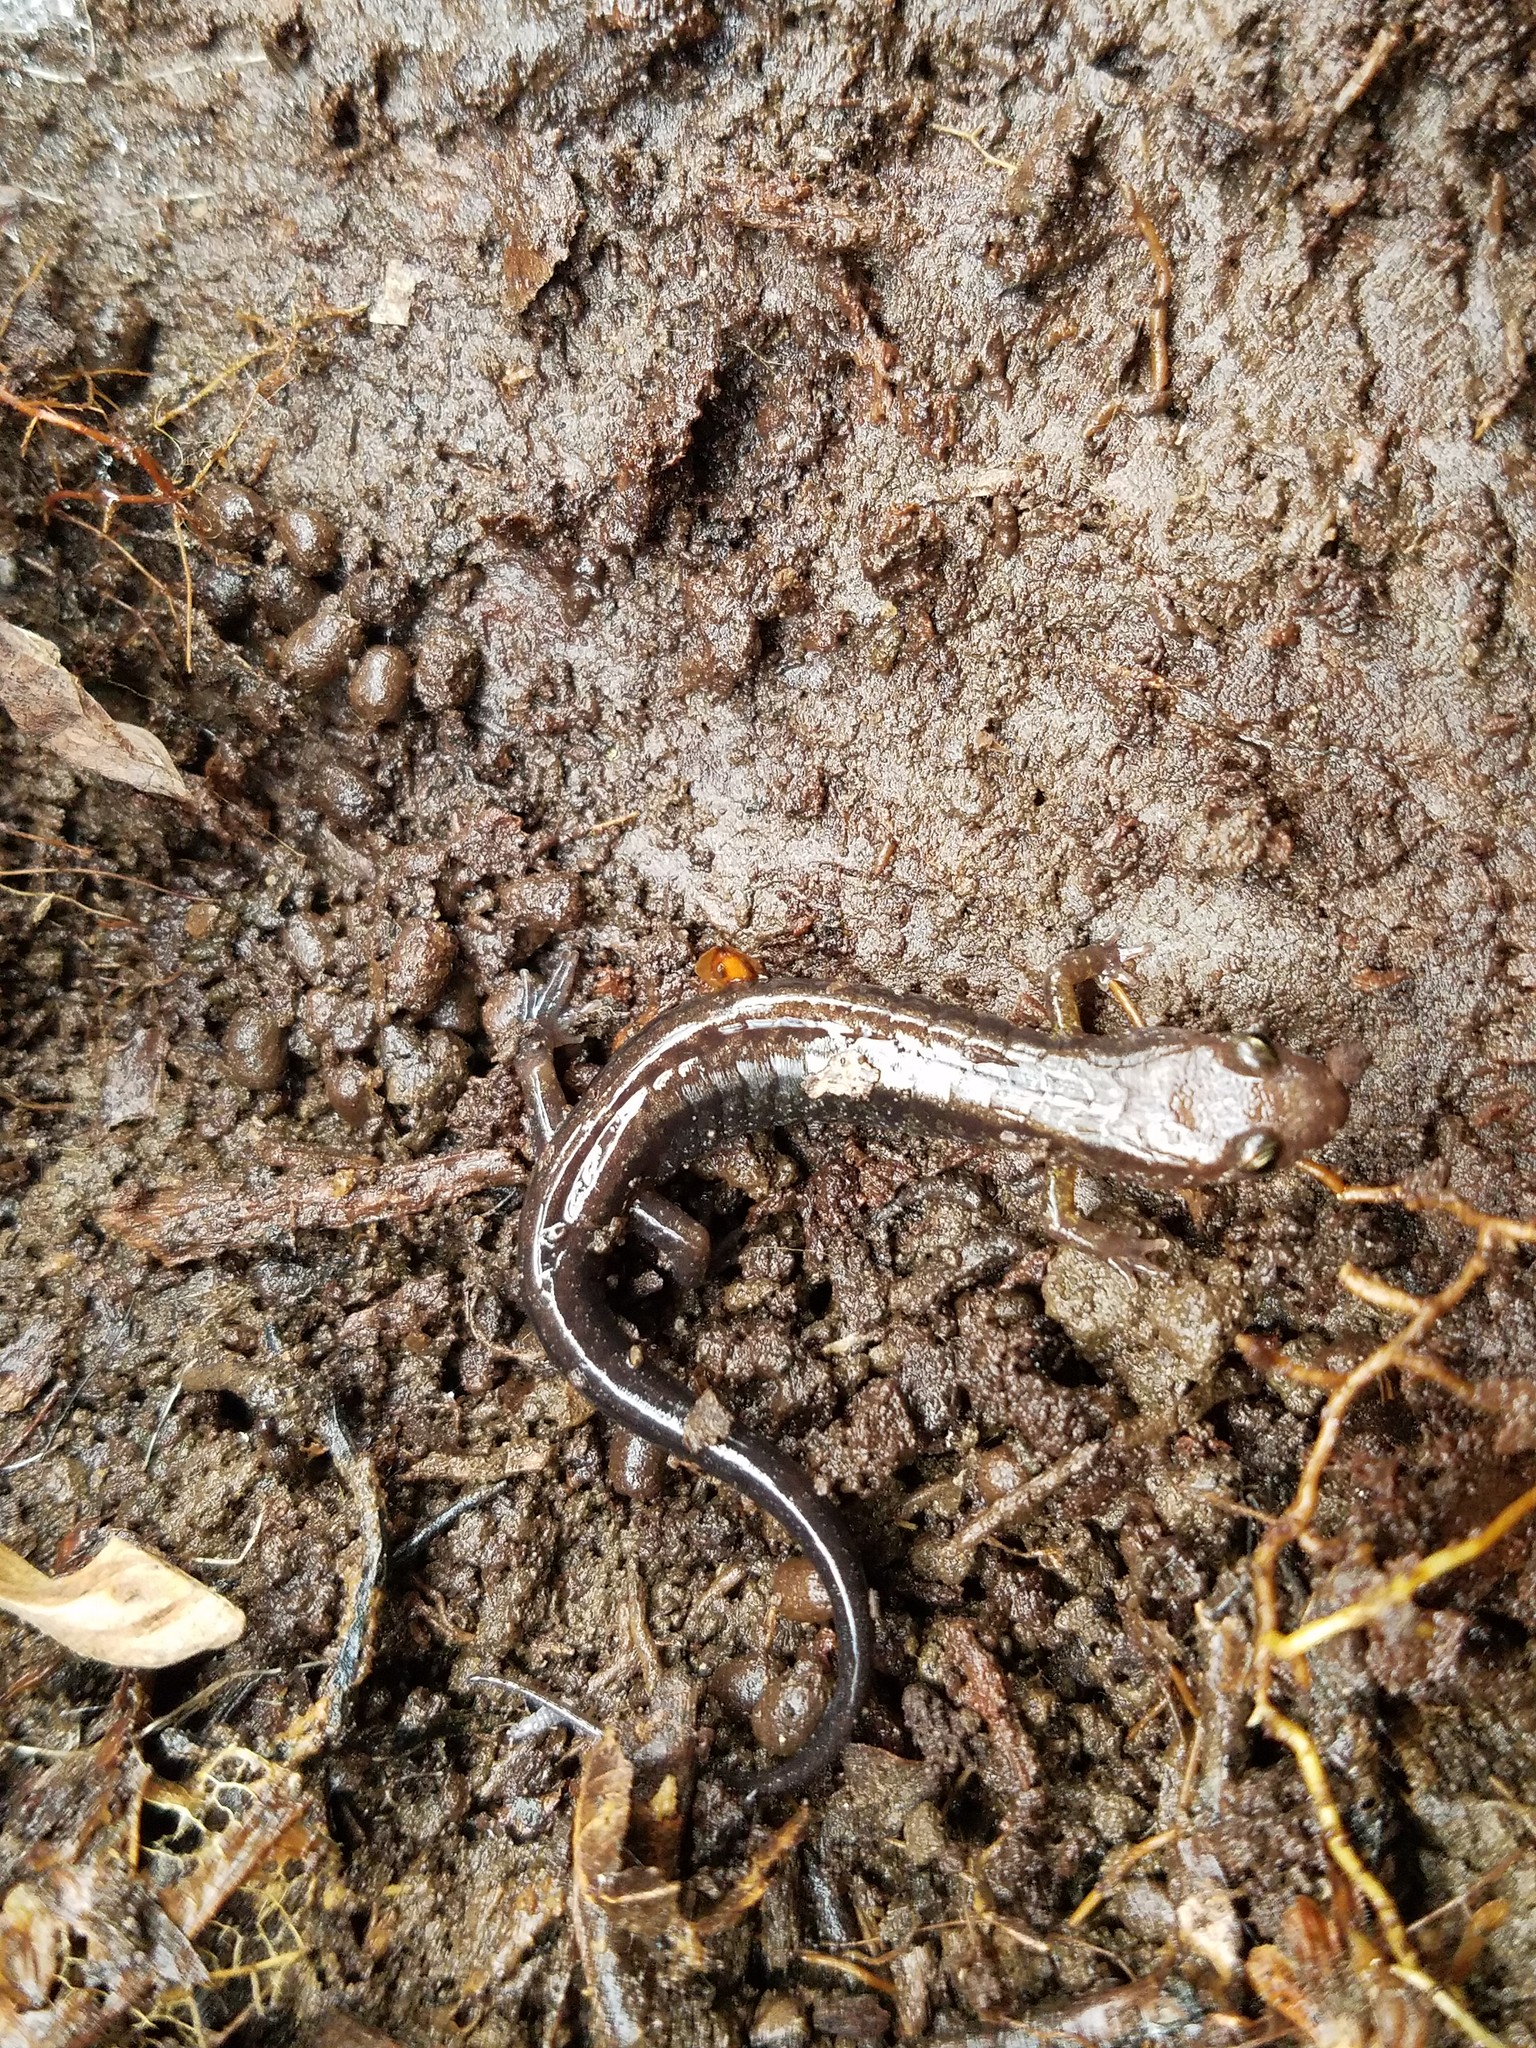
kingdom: Animalia
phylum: Chordata
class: Amphibia
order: Caudata
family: Plethodontidae
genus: Desmognathus
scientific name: Desmognathus ochrophaeus
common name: Allegheny mountain dusky salamander
